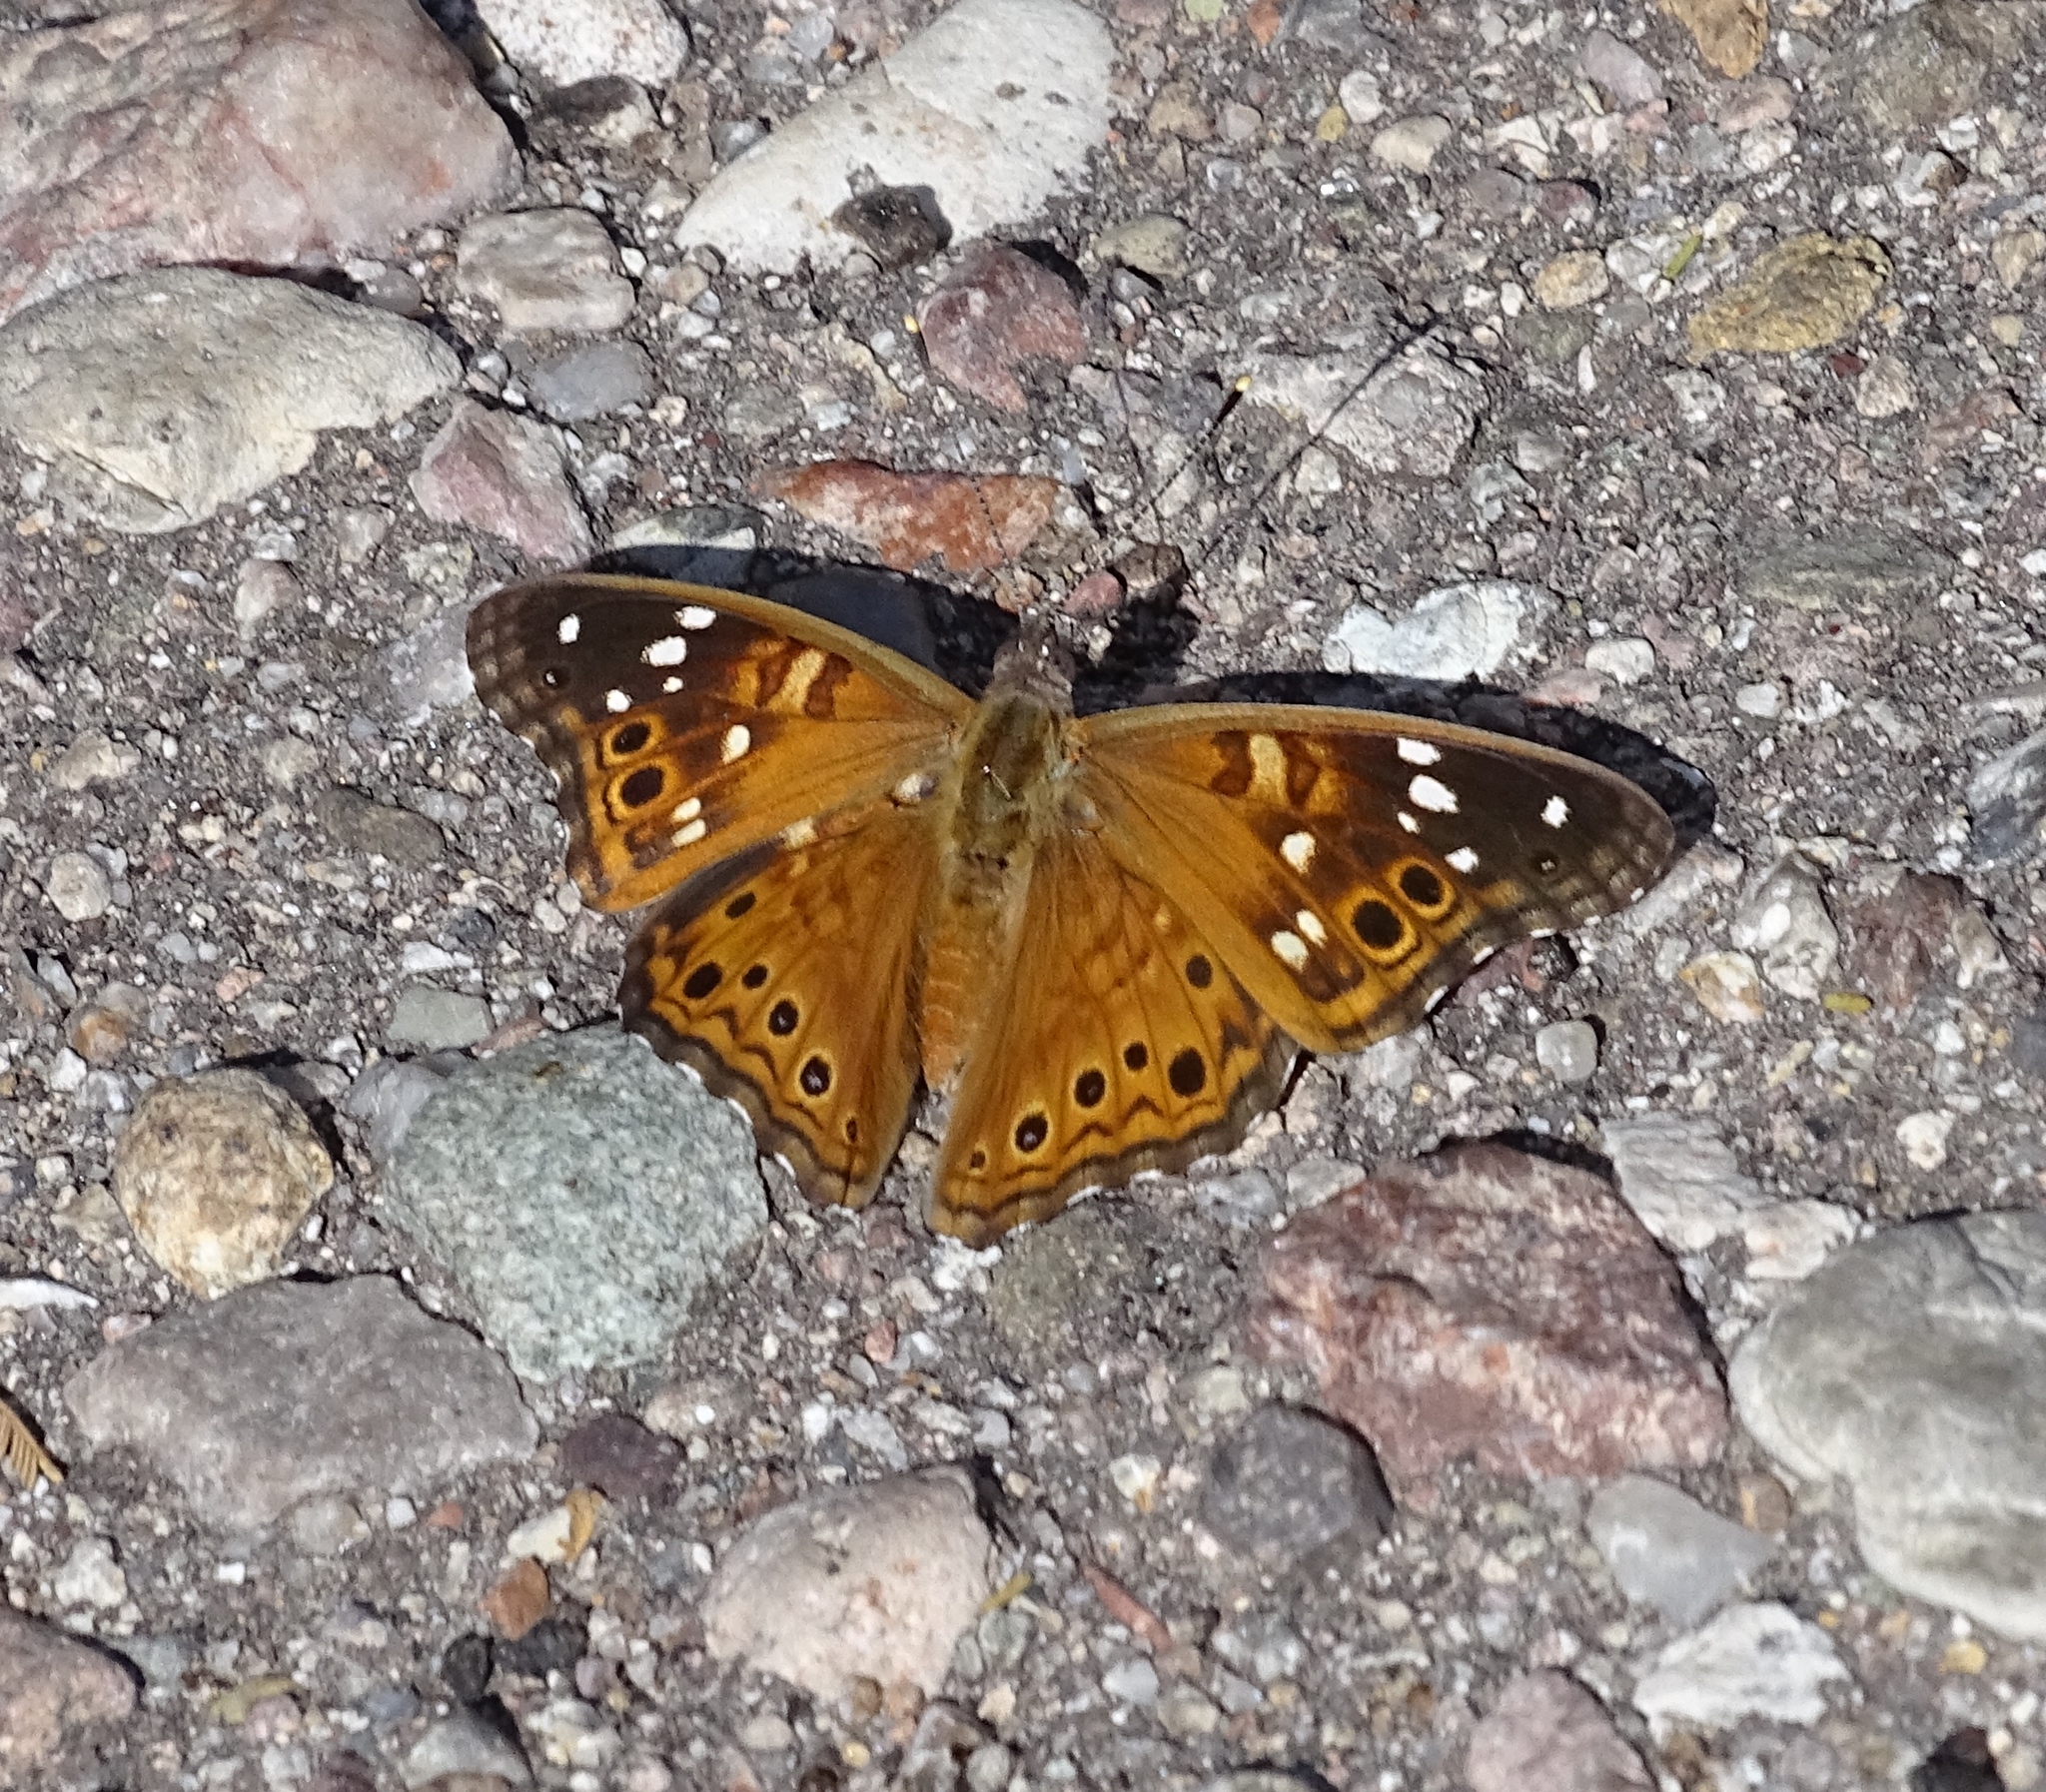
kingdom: Animalia
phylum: Arthropoda
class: Insecta
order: Lepidoptera
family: Nymphalidae
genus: Asterocampa
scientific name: Asterocampa leilia
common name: Empress leilia
